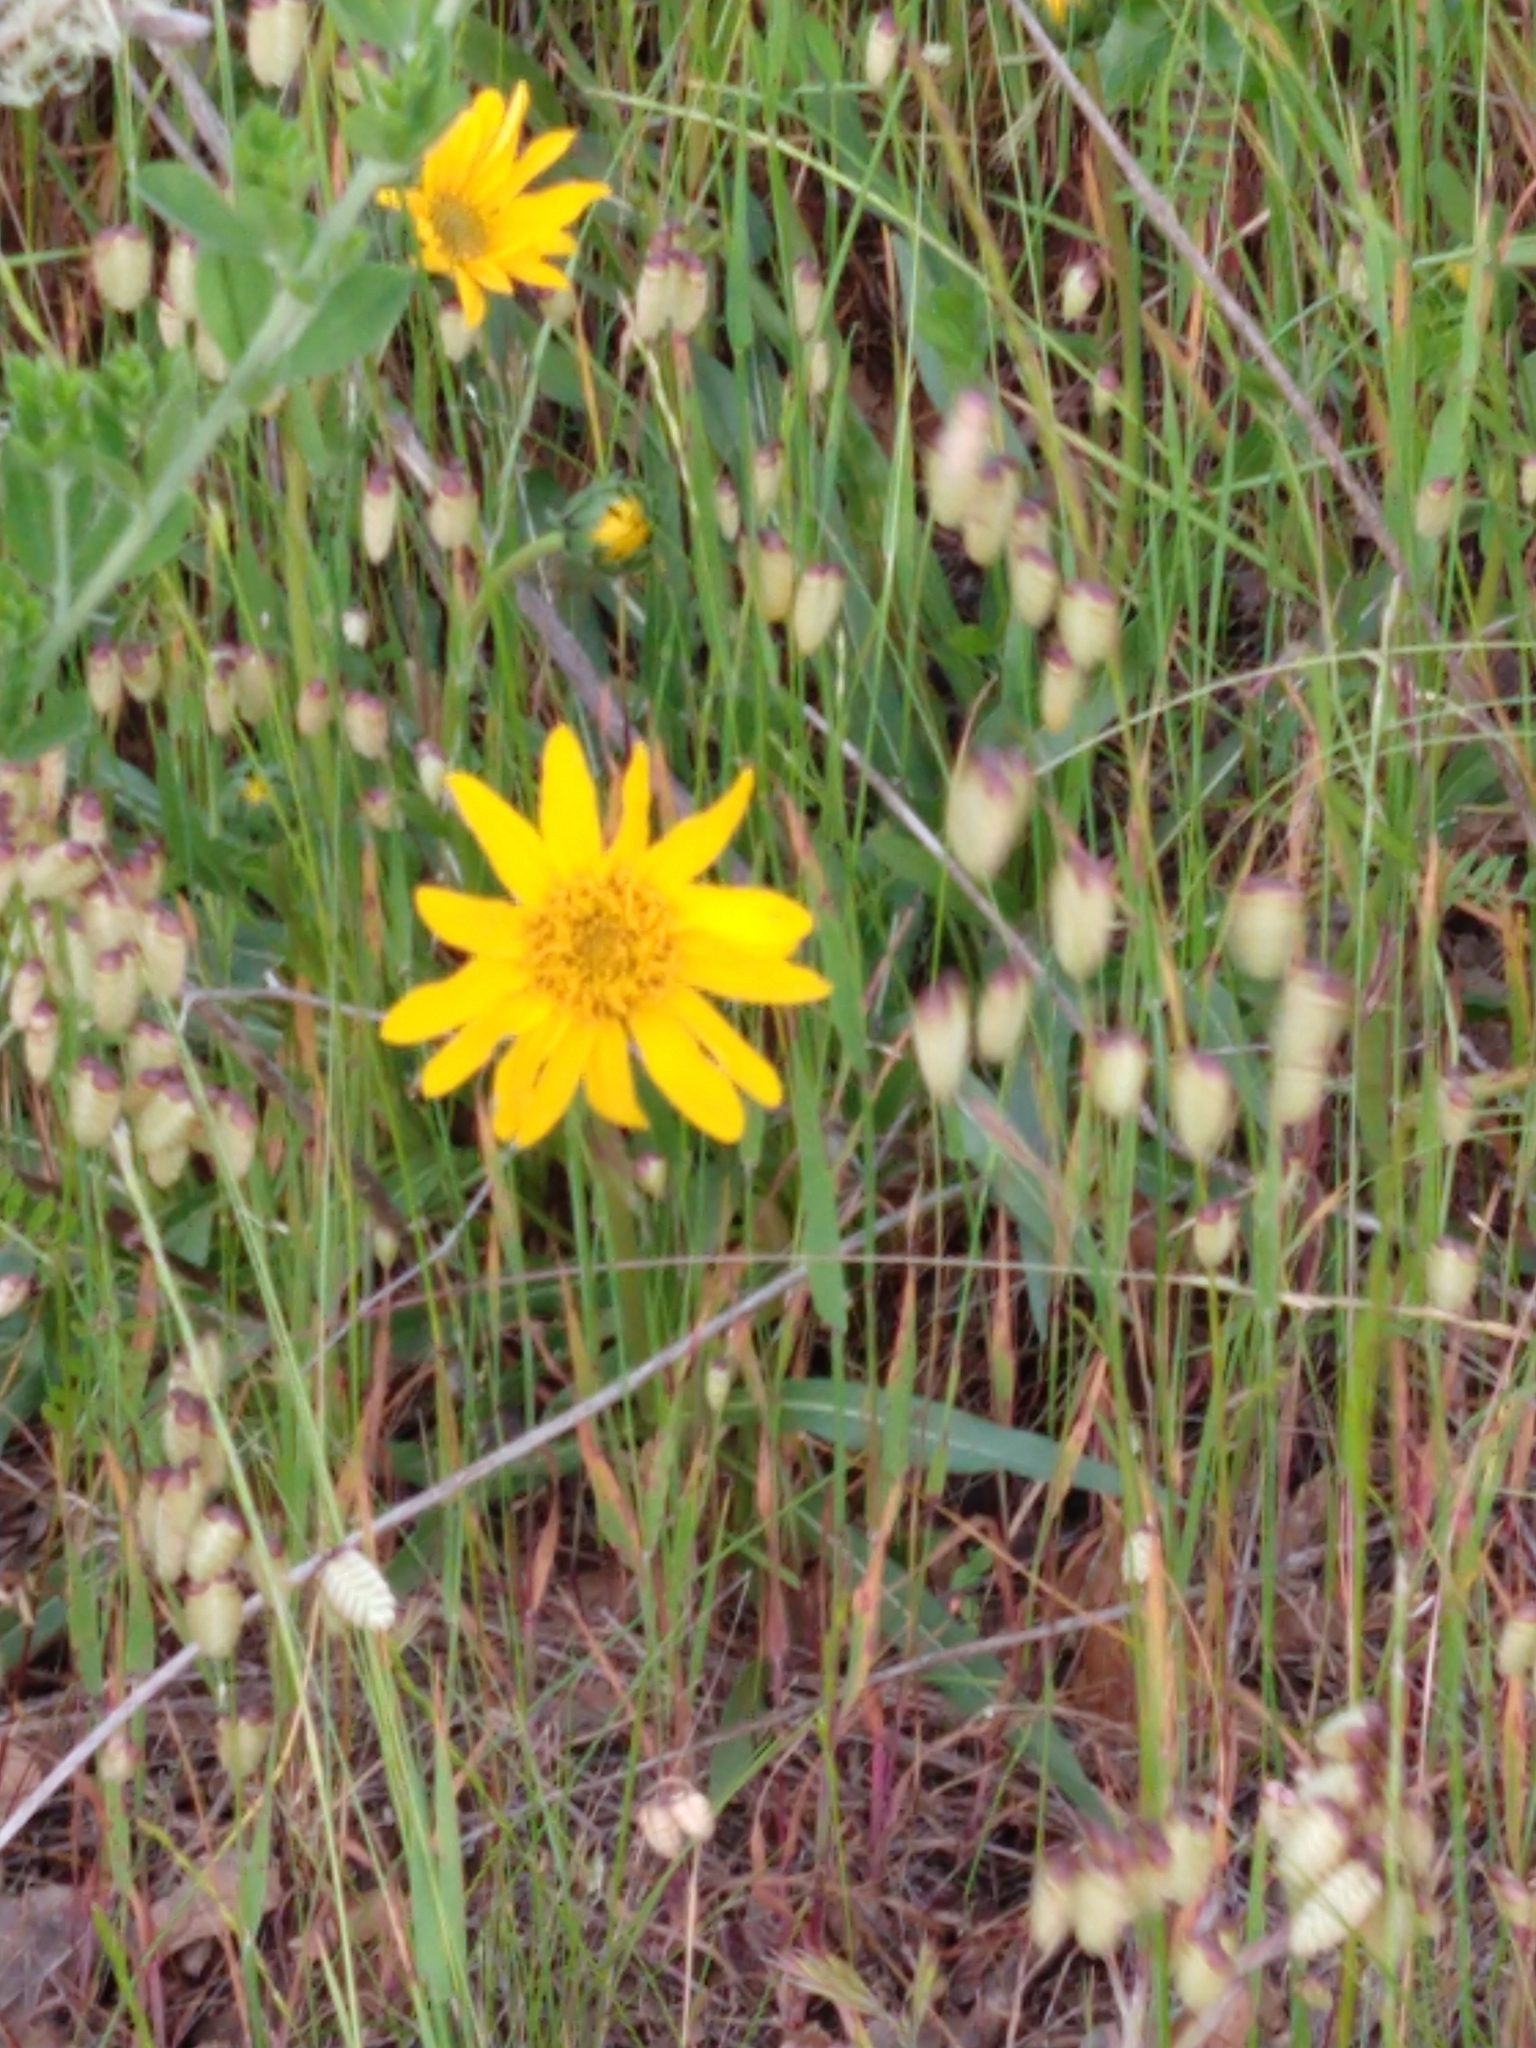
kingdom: Plantae
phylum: Tracheophyta
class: Magnoliopsida
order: Asterales
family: Asteraceae
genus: Wyethia
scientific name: Wyethia angustifolia
